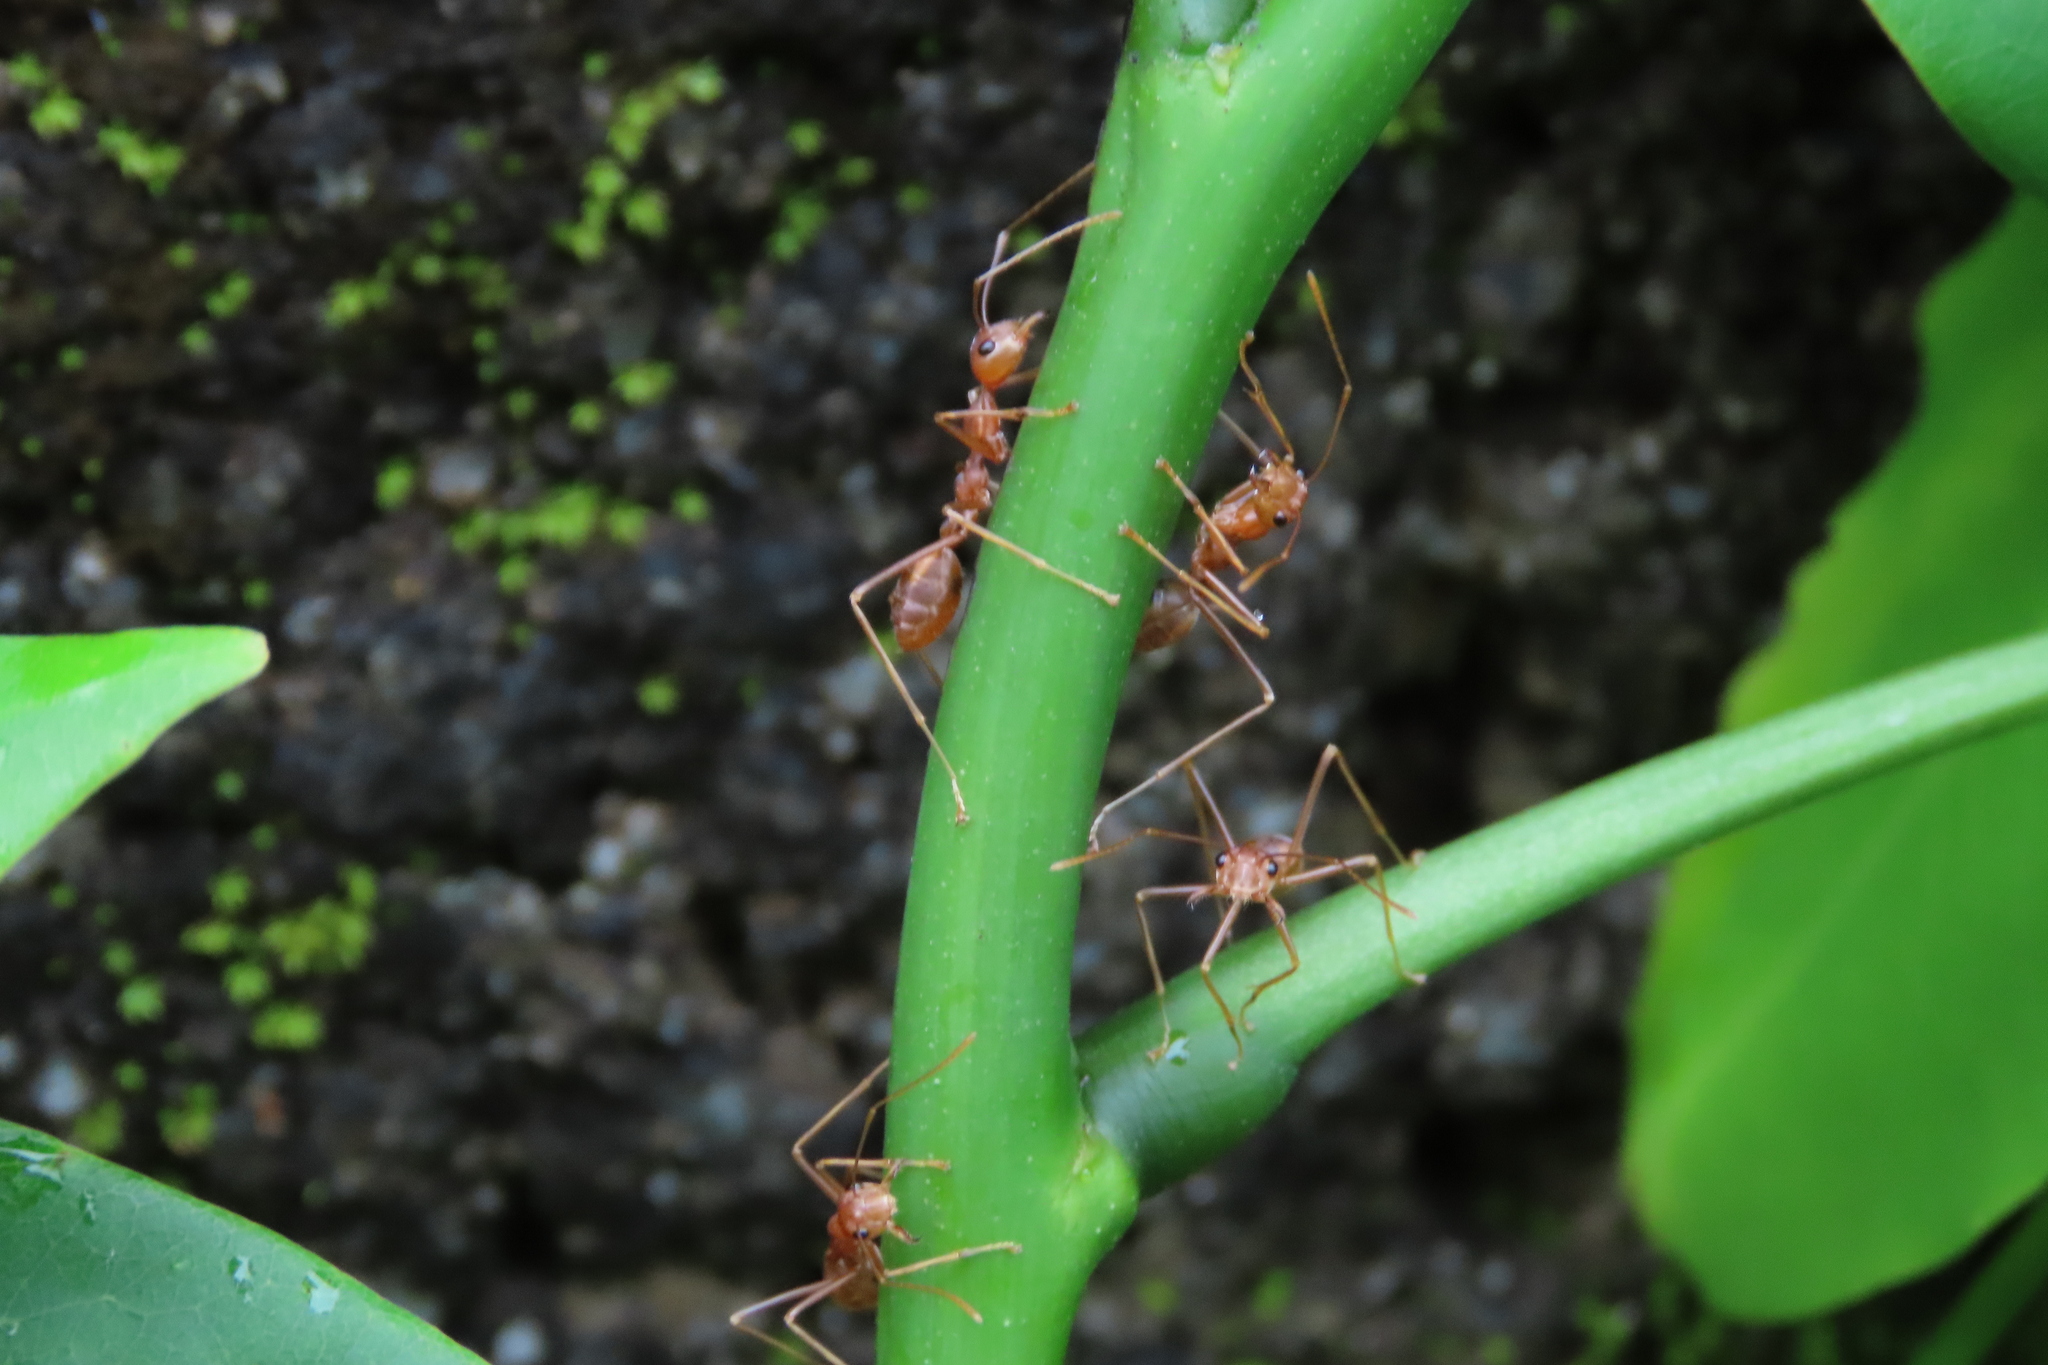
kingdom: Animalia
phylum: Arthropoda
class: Insecta
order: Hymenoptera
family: Formicidae
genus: Oecophylla
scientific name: Oecophylla smaragdina
